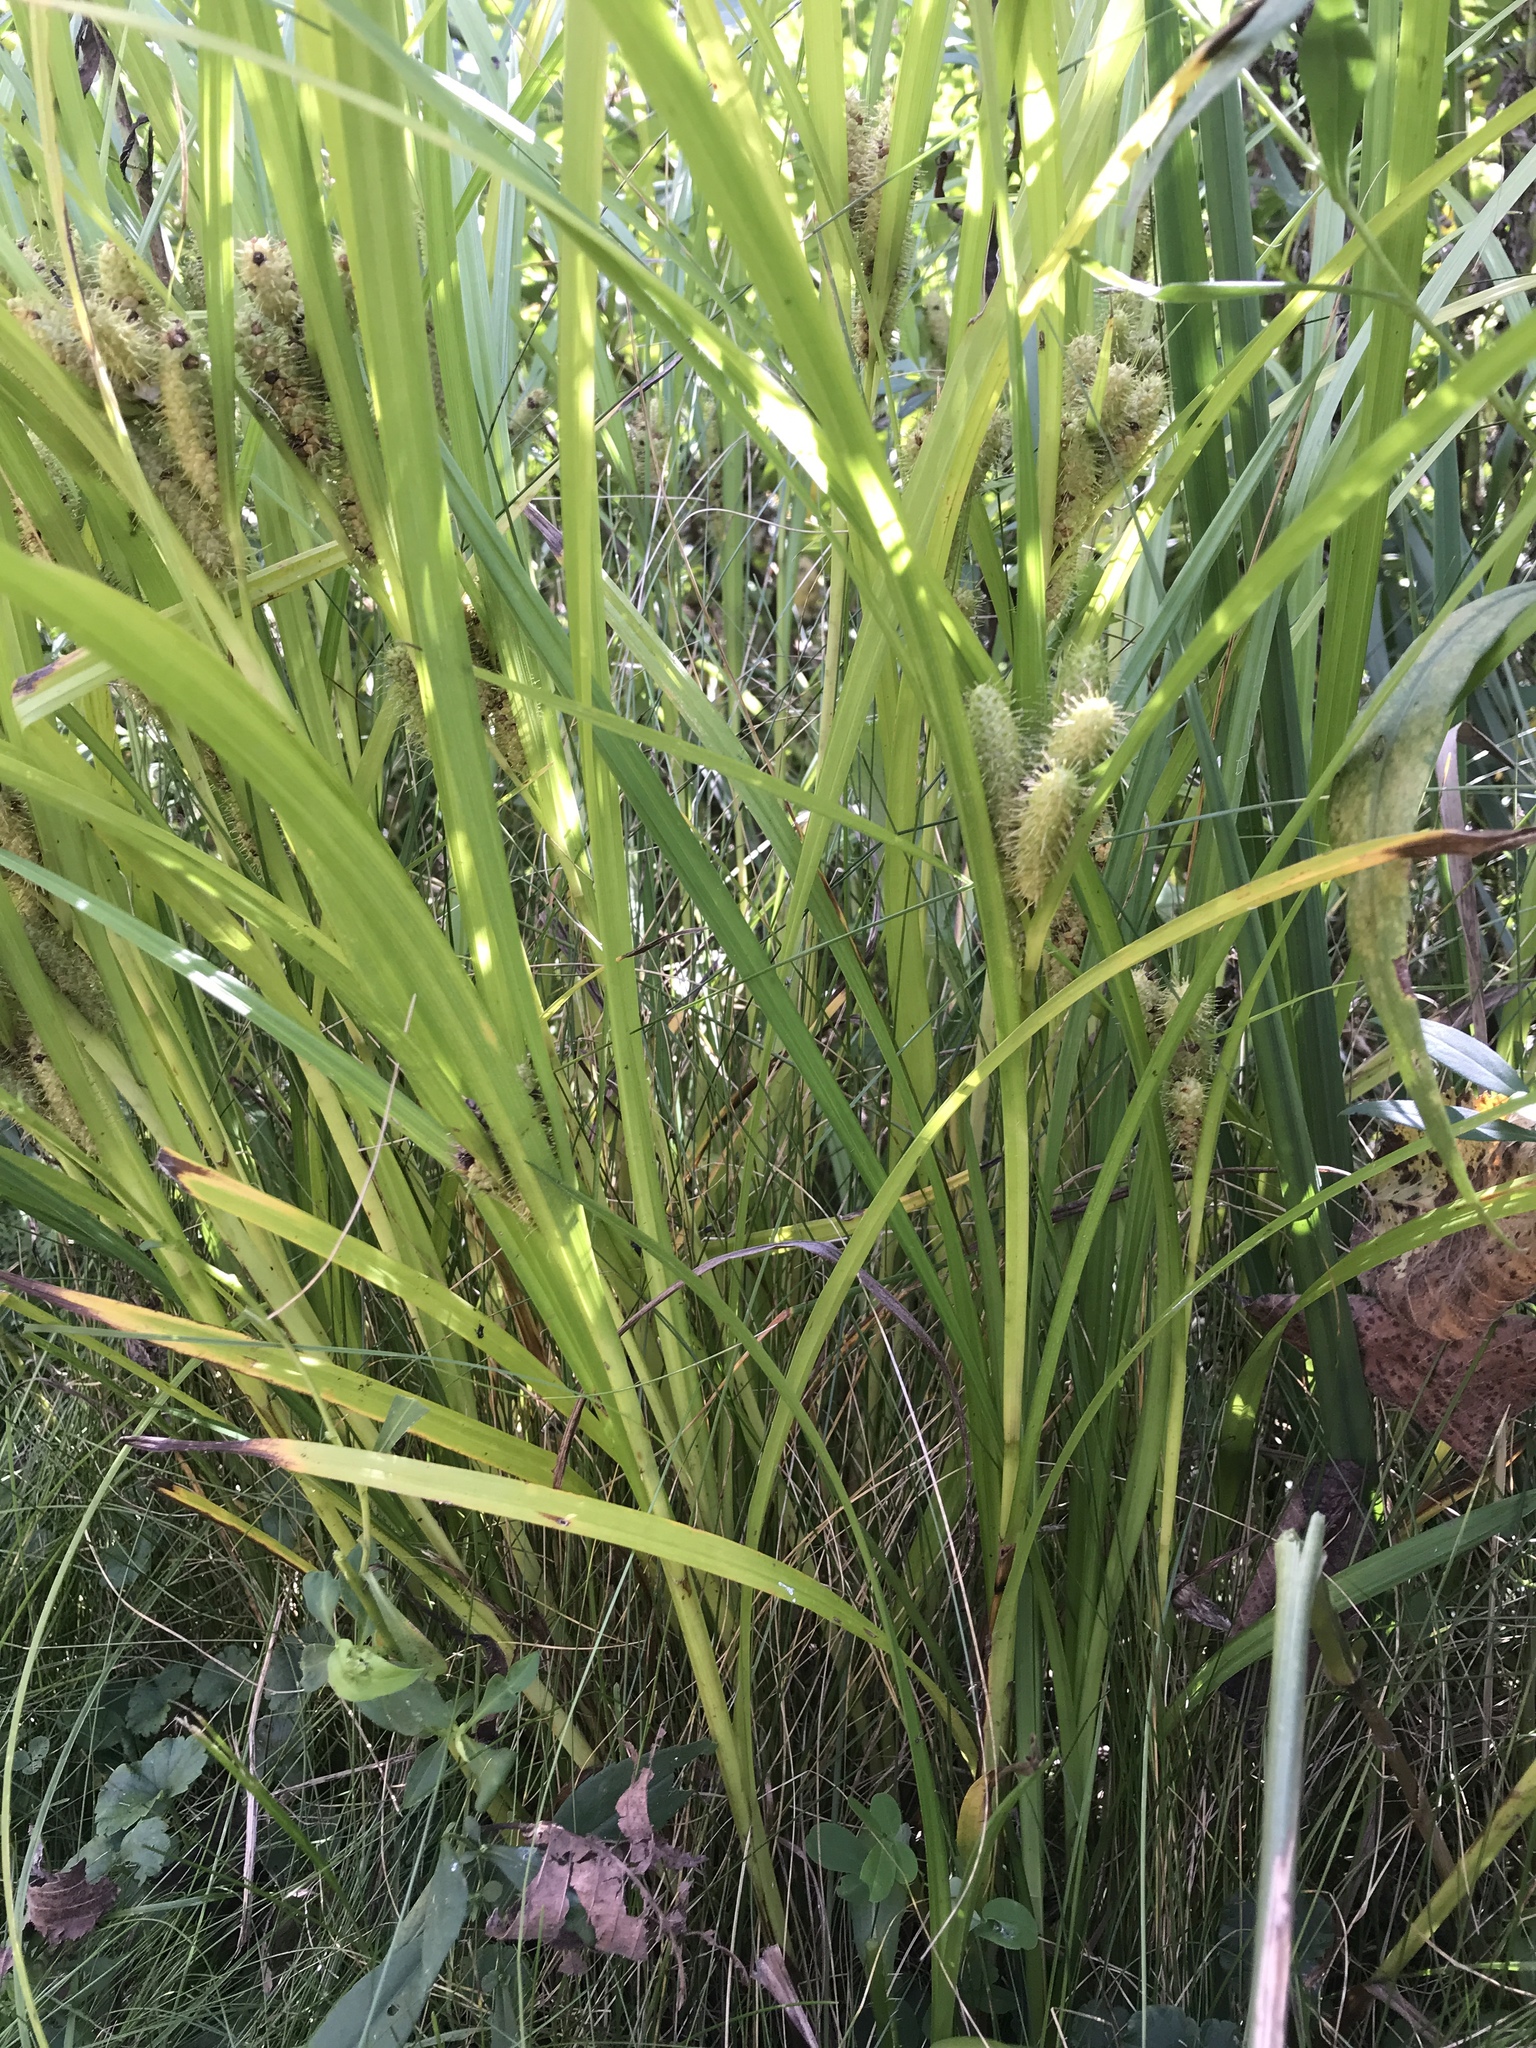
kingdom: Plantae
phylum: Tracheophyta
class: Liliopsida
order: Poales
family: Cyperaceae
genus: Carex
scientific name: Carex frankii
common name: Frank's sedge
